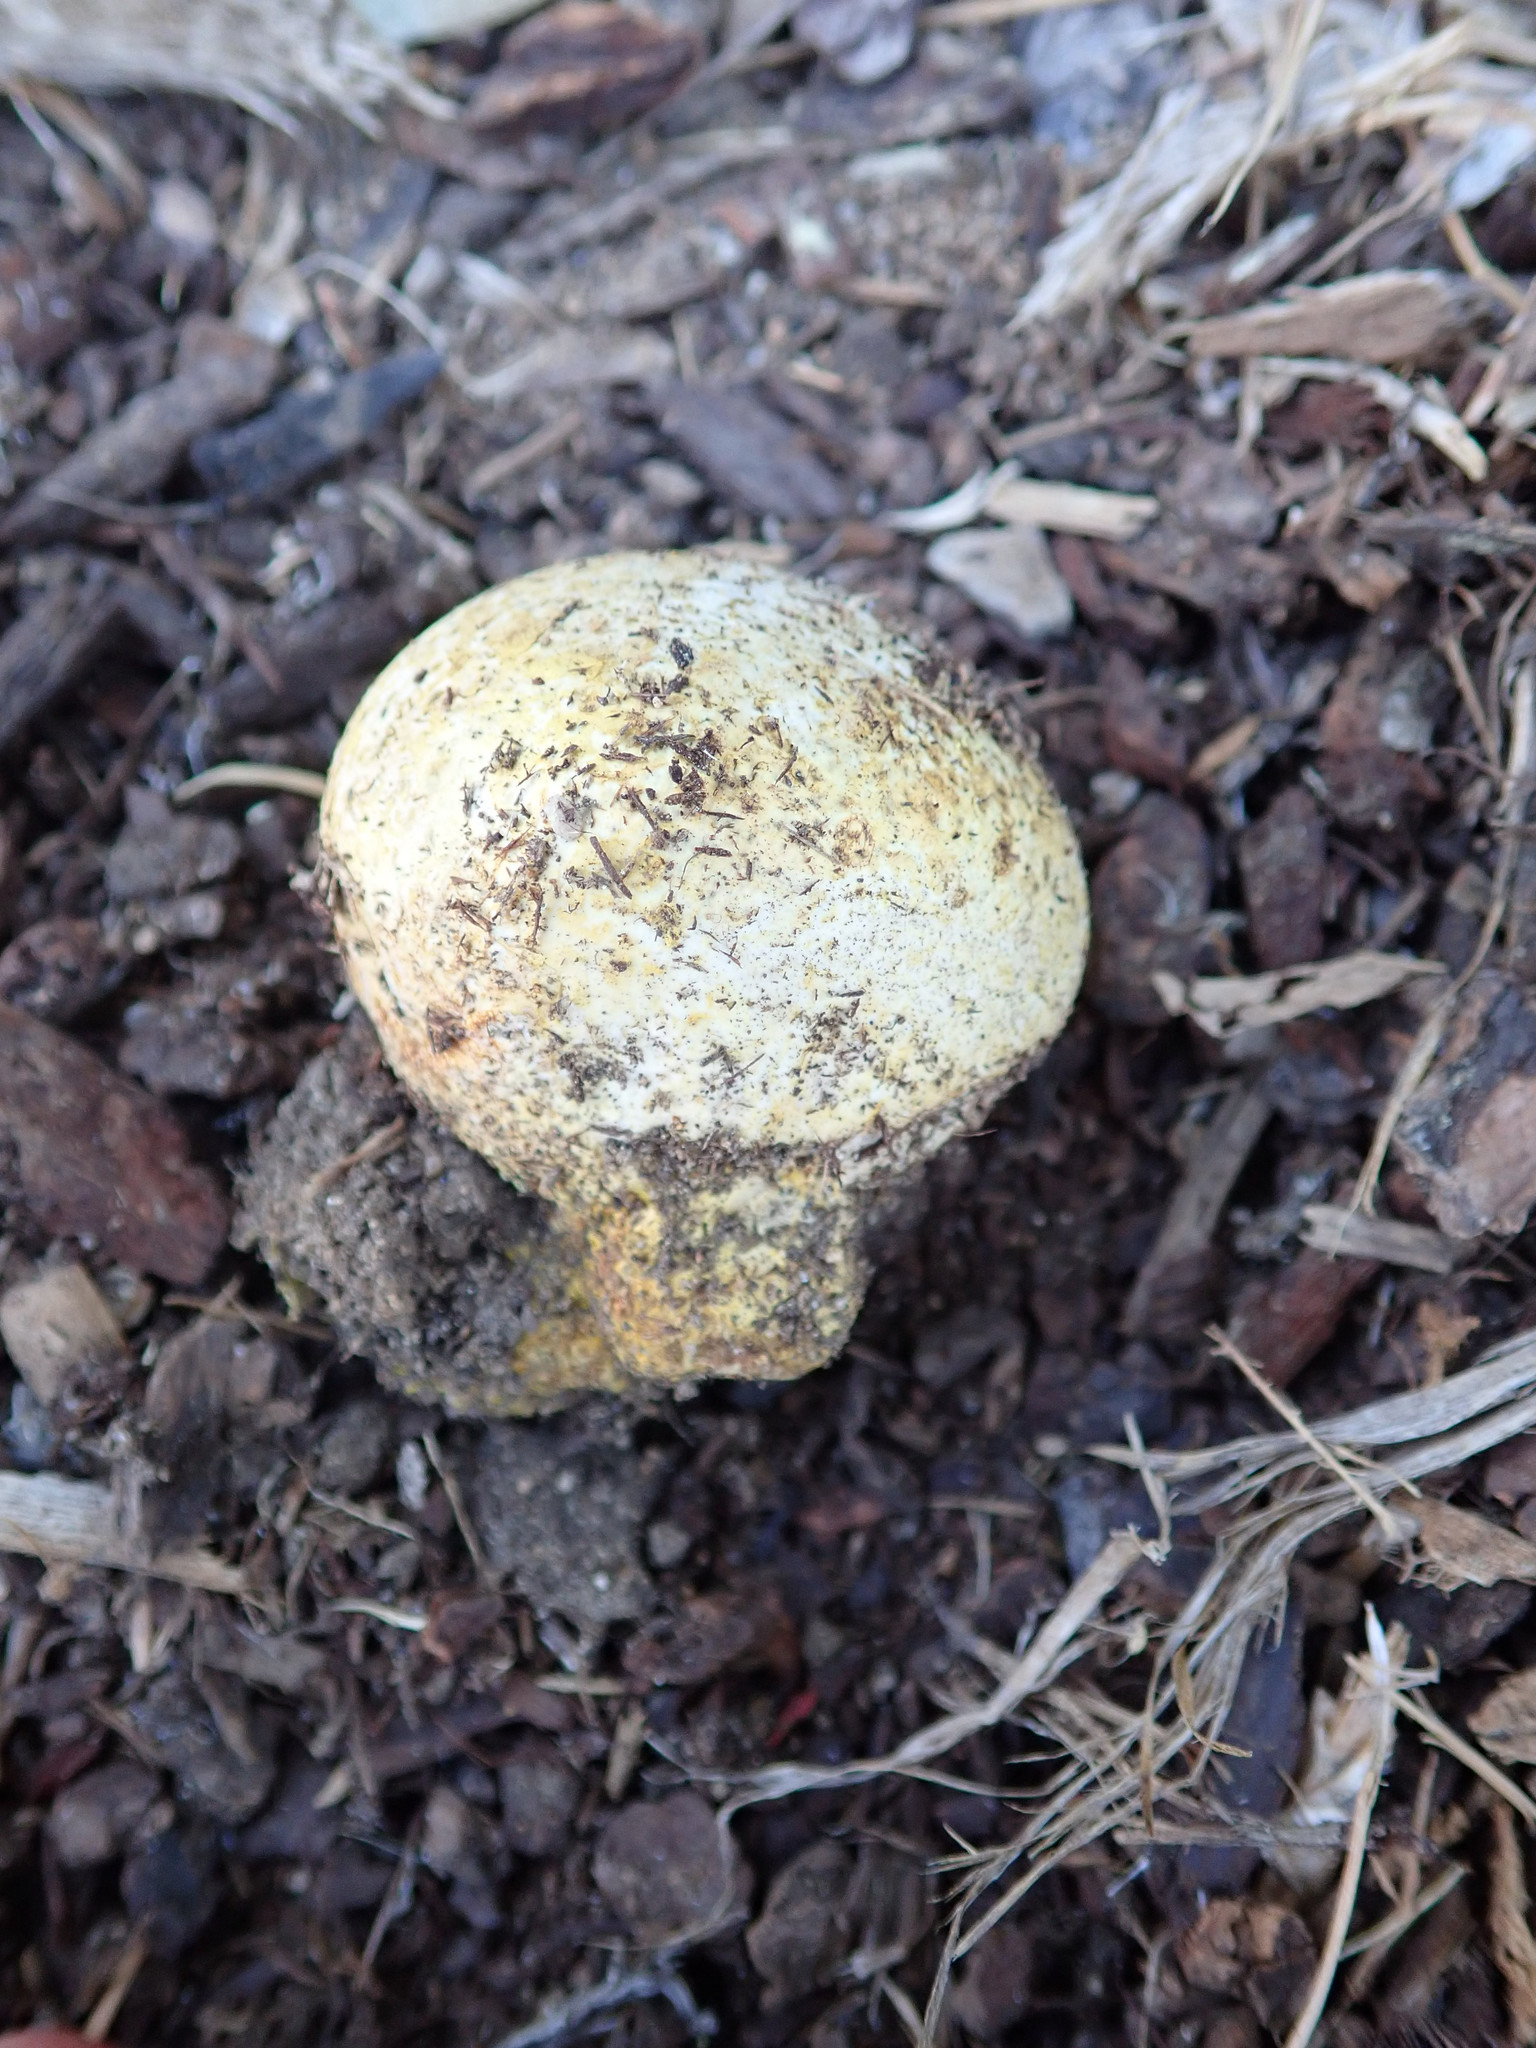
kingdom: Fungi
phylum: Basidiomycota
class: Agaricomycetes
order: Boletales
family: Sclerodermataceae
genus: Pisolithus
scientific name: Pisolithus arhizus
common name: Dyeball
